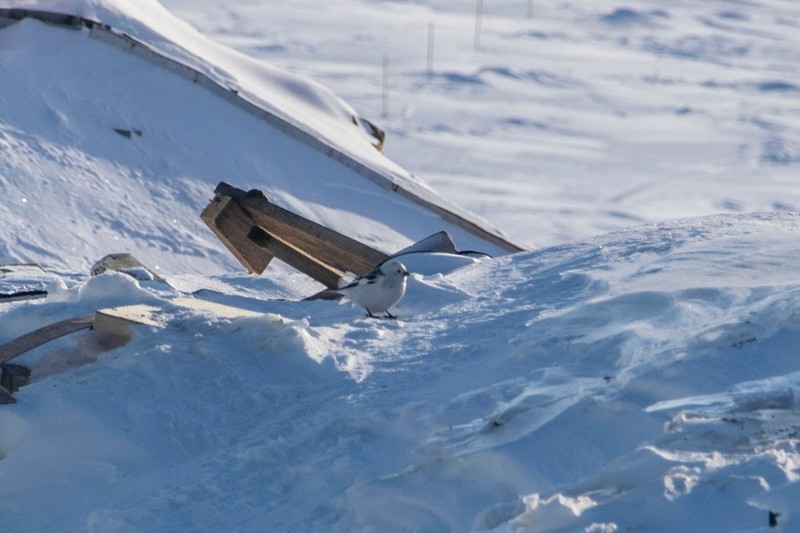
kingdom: Animalia
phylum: Chordata
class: Aves
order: Passeriformes
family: Calcariidae
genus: Plectrophenax
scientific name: Plectrophenax nivalis
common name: Snow bunting
